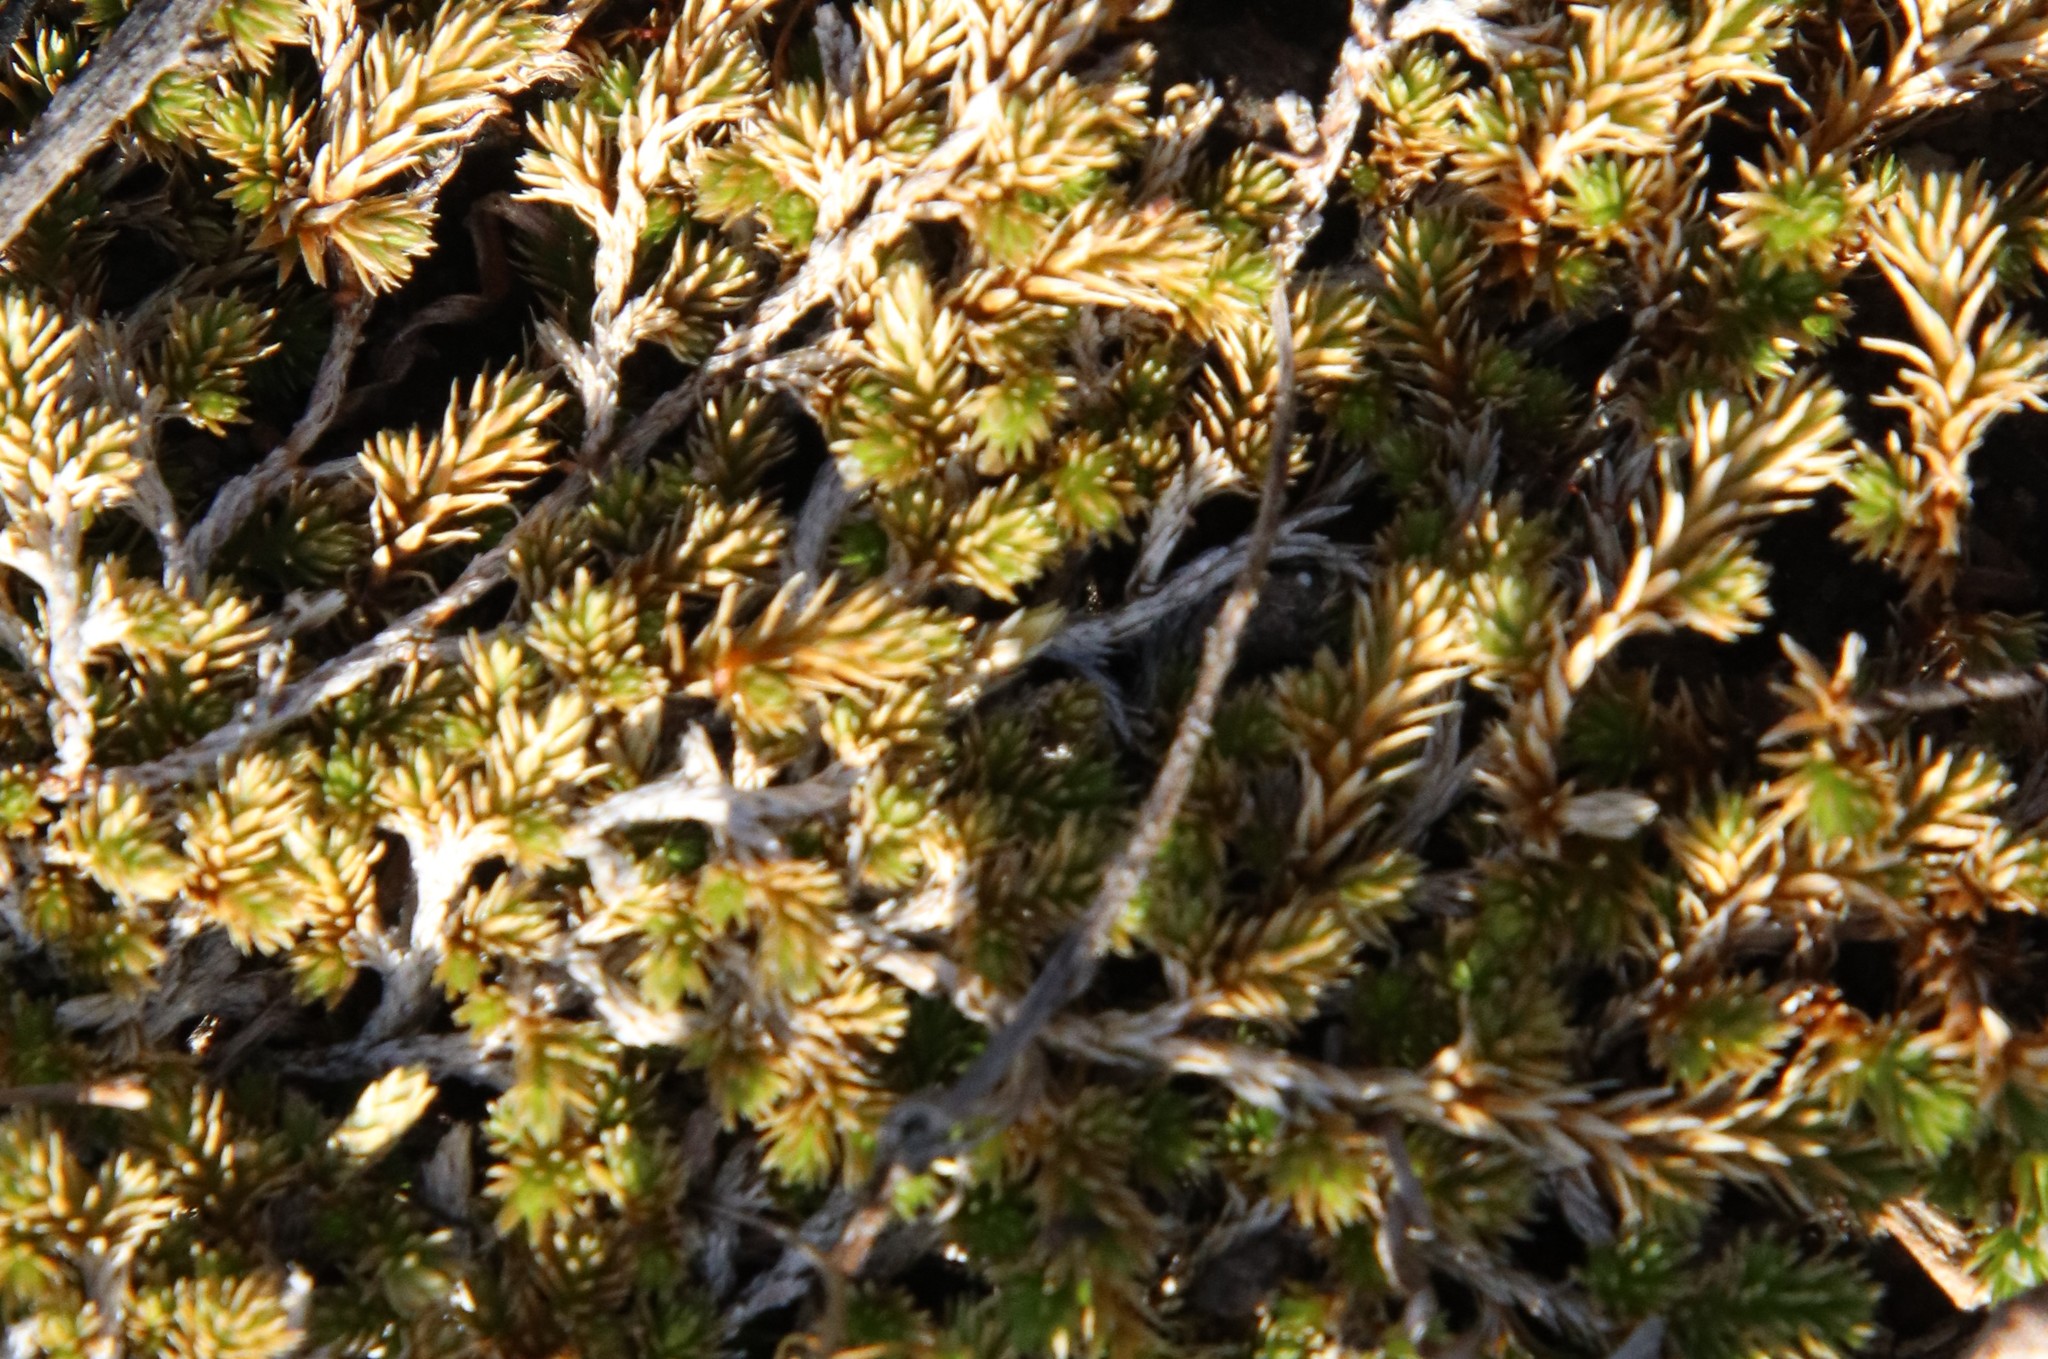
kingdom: Plantae
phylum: Tracheophyta
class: Lycopodiopsida
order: Selaginellales
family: Selaginellaceae
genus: Selaginella
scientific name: Selaginella cinerascens
